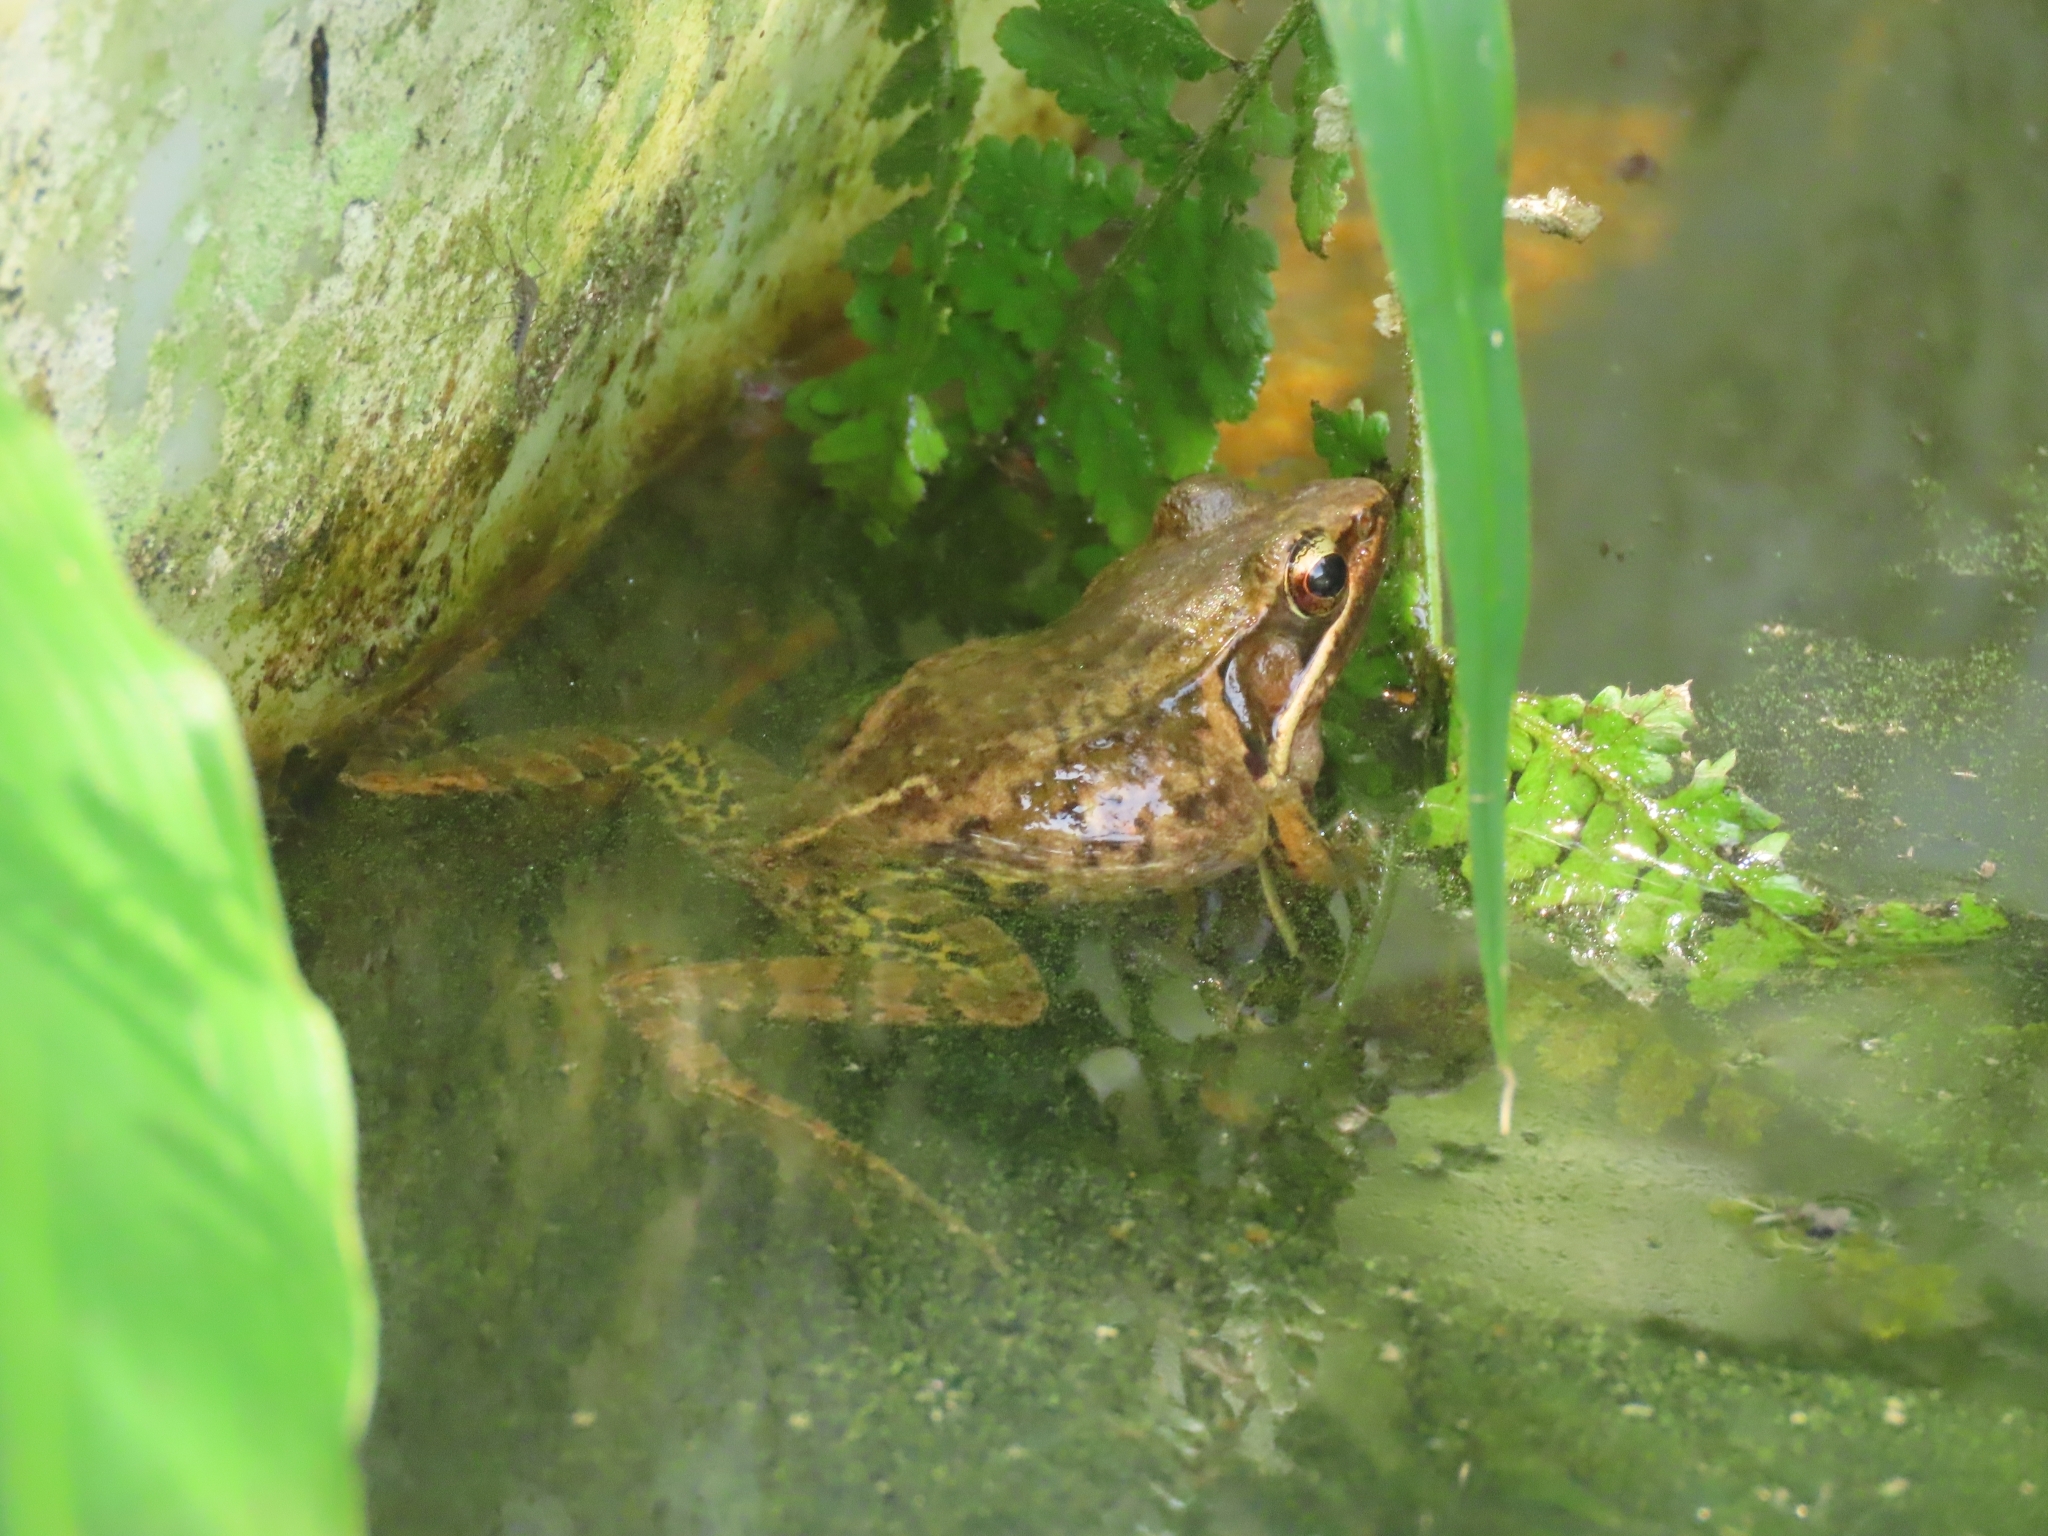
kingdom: Animalia
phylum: Chordata
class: Amphibia
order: Anura
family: Ranidae
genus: Nidirana
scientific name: Nidirana adenopleura
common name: Olive frog
